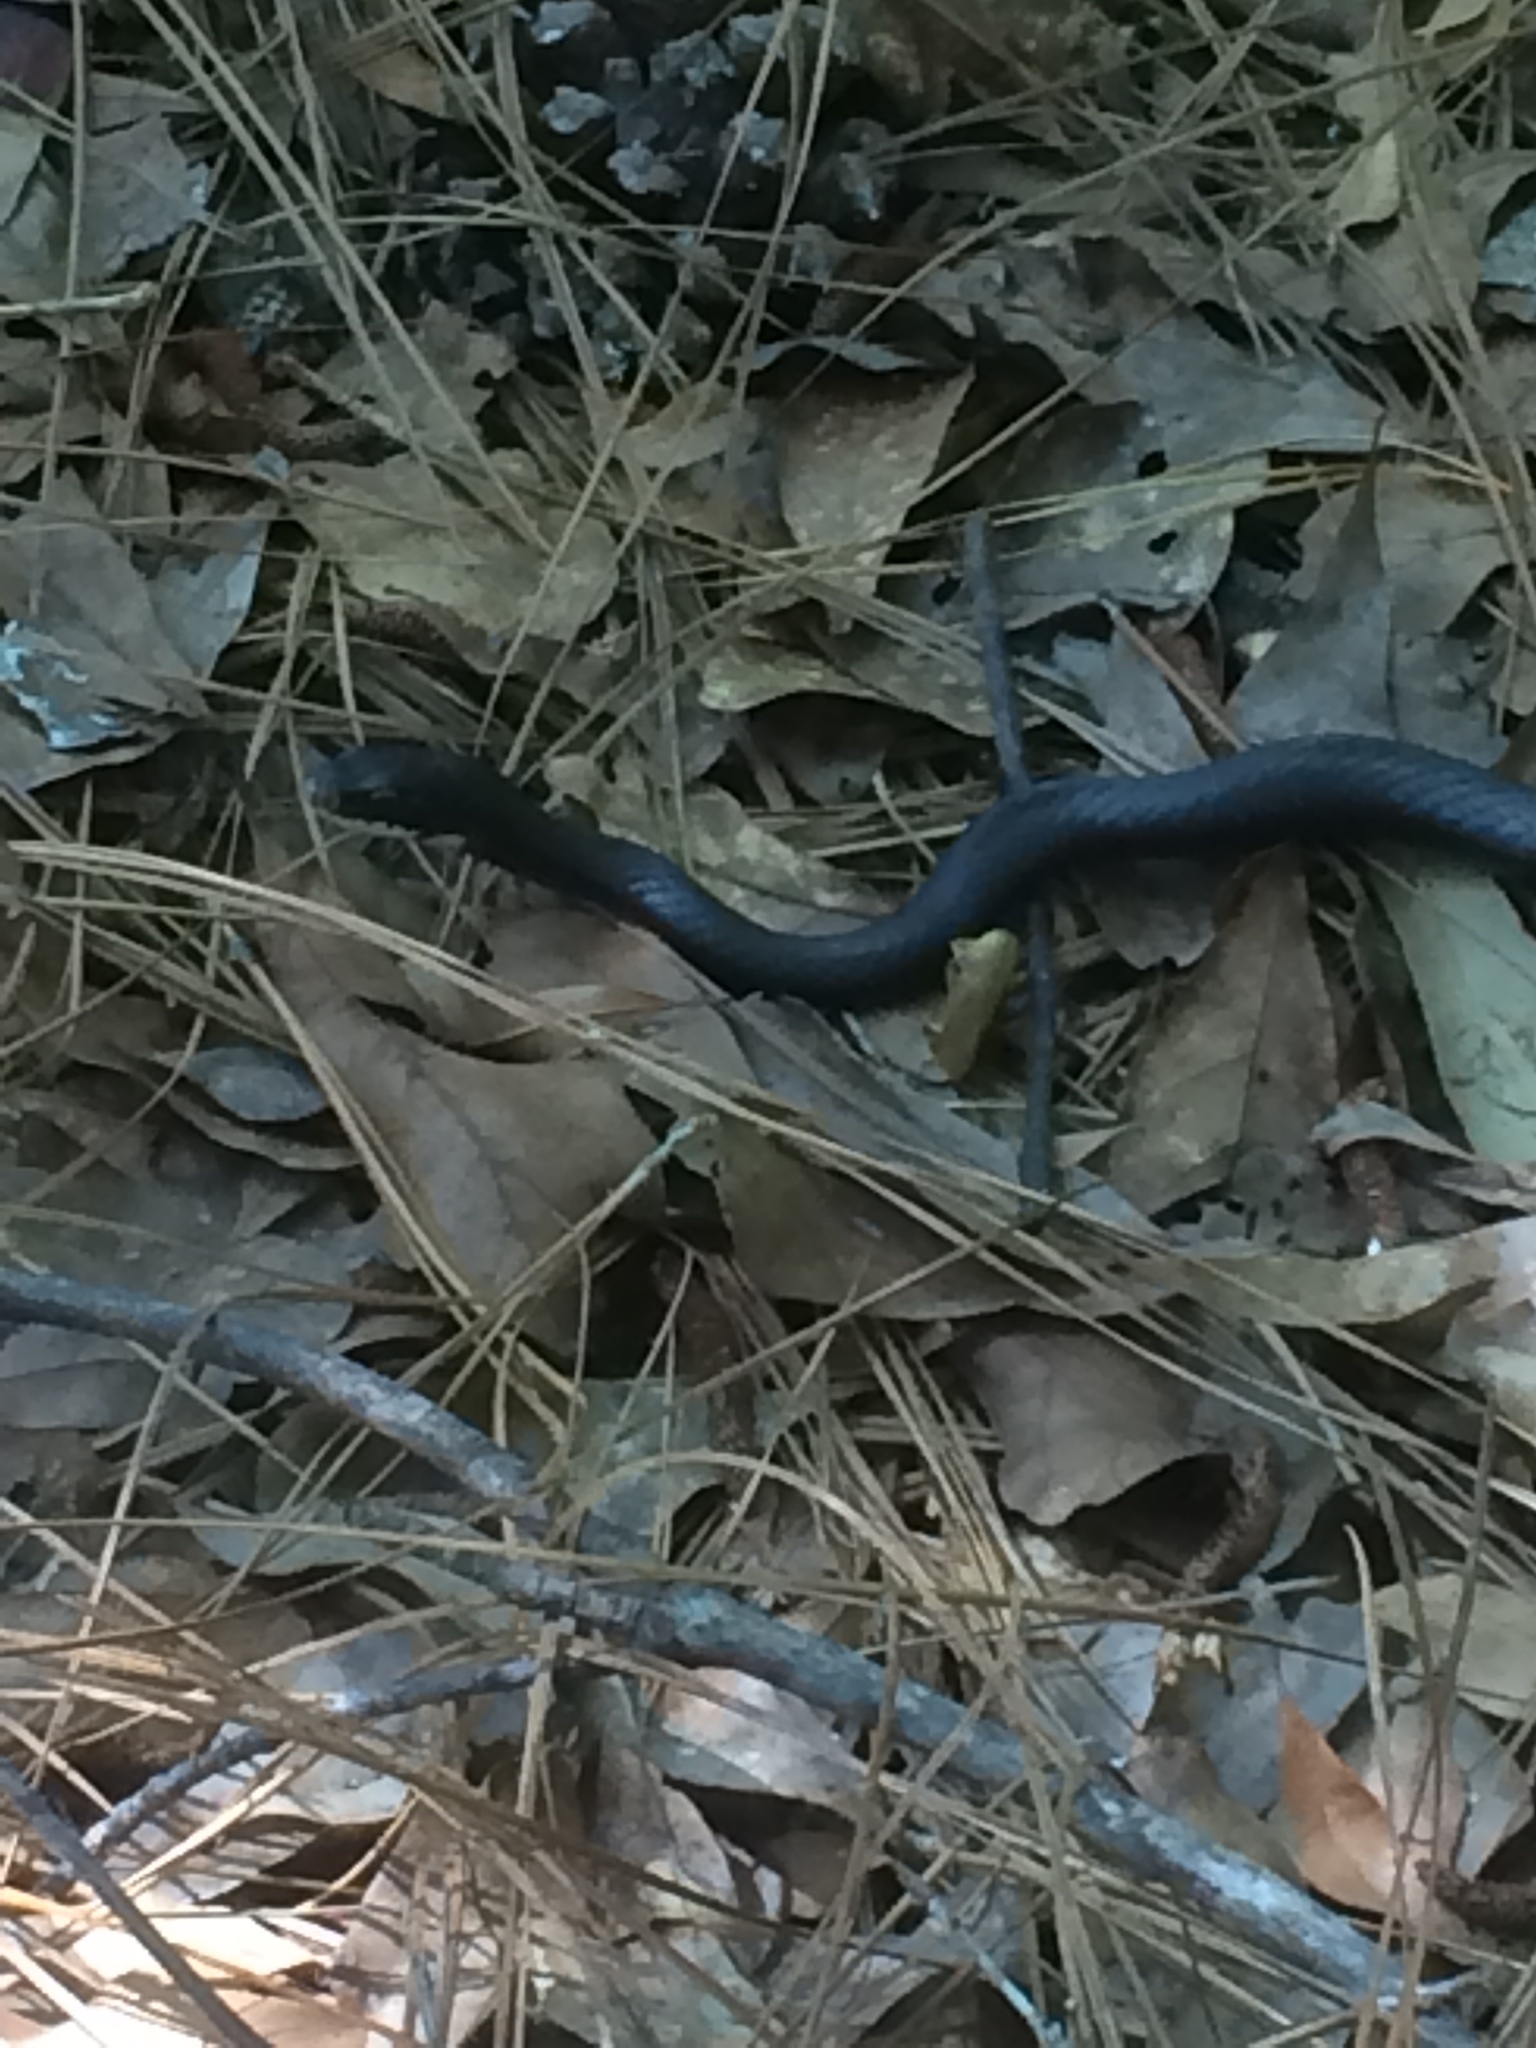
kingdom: Animalia
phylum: Chordata
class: Squamata
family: Colubridae
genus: Coluber
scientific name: Coluber constrictor
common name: Eastern racer
